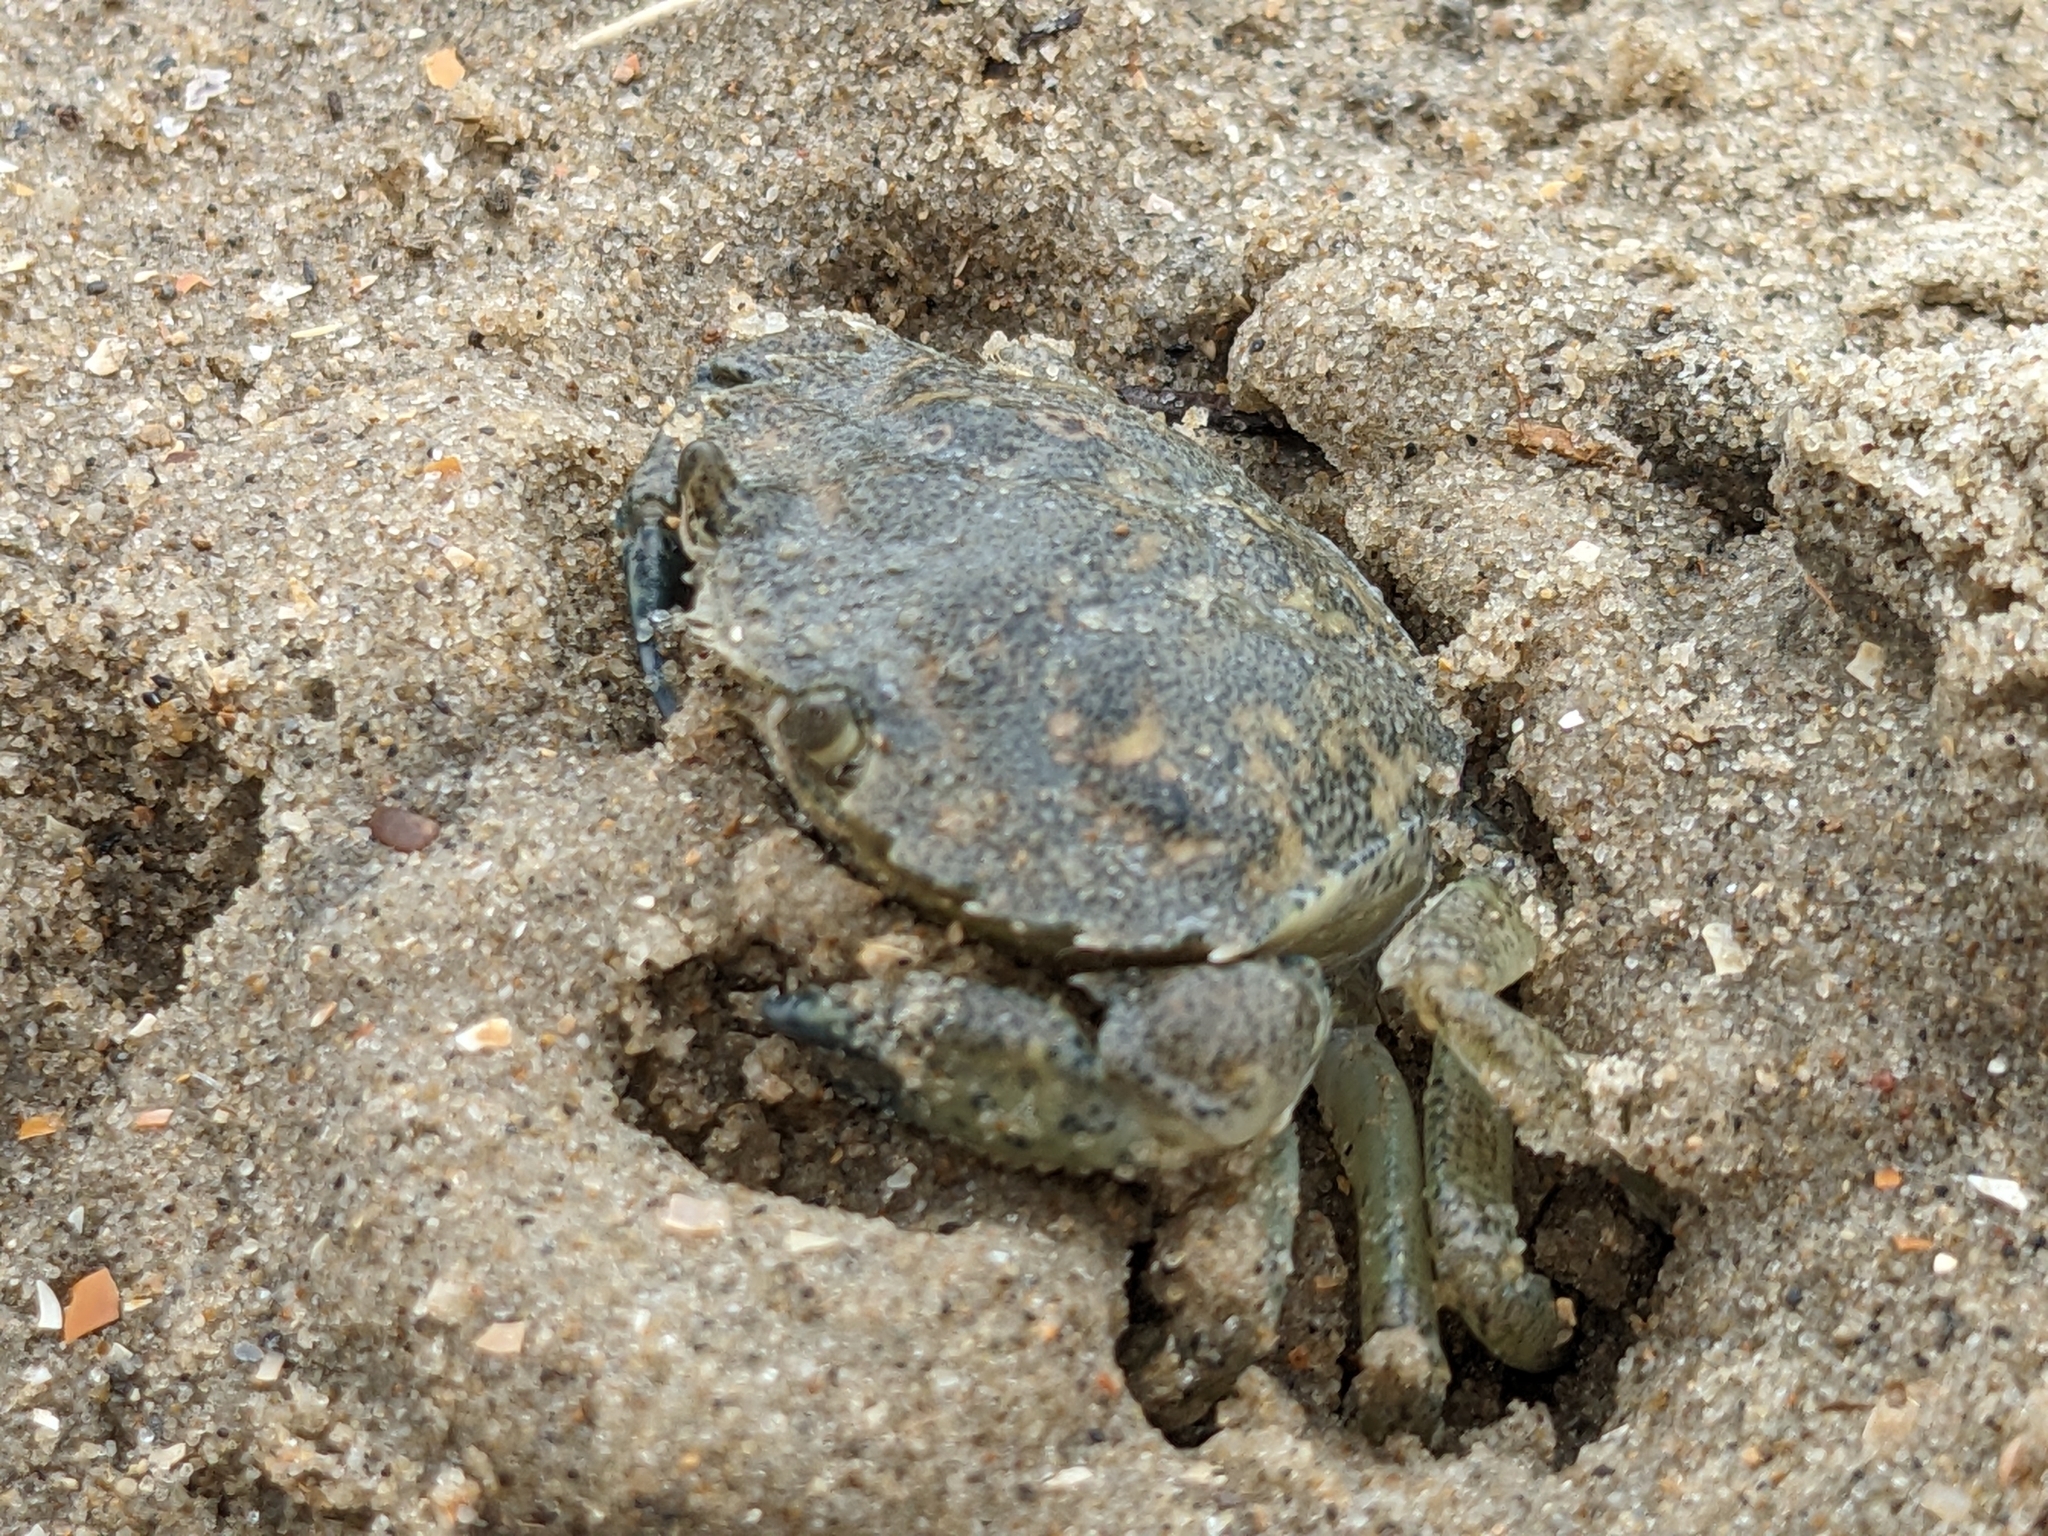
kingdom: Animalia
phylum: Arthropoda
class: Malacostraca
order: Decapoda
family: Carcinidae
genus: Carcinus
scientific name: Carcinus maenas
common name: European green crab
